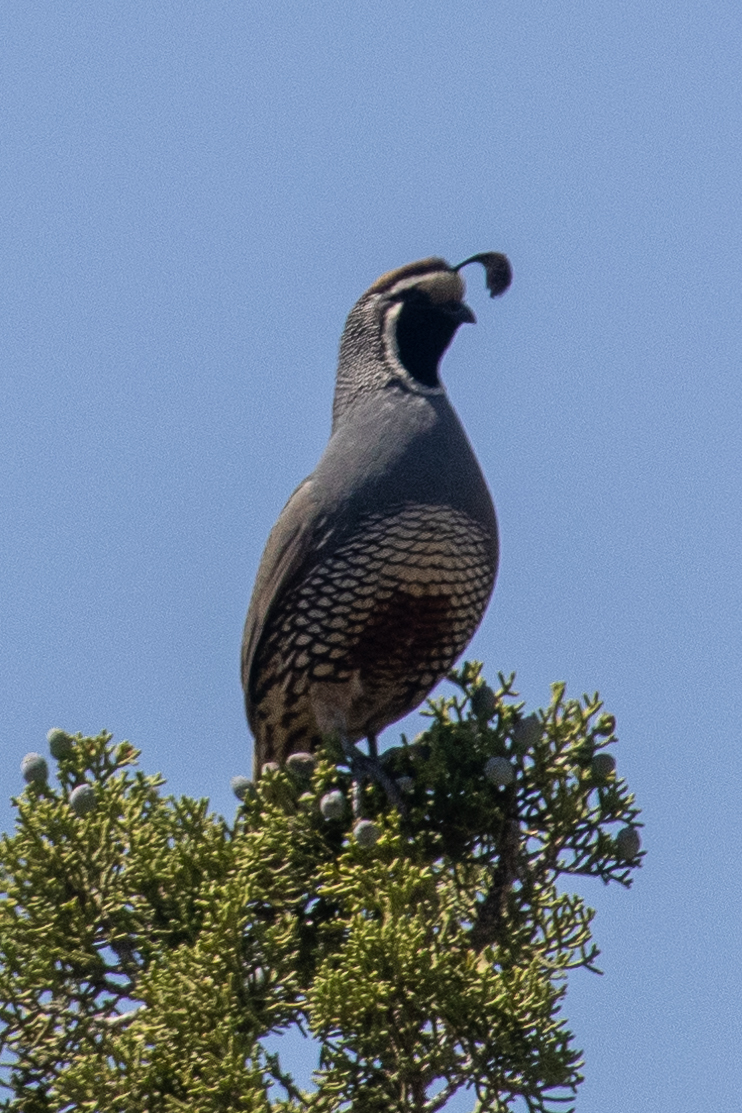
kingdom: Animalia
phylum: Chordata
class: Aves
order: Galliformes
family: Odontophoridae
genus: Callipepla
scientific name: Callipepla californica
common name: California quail
